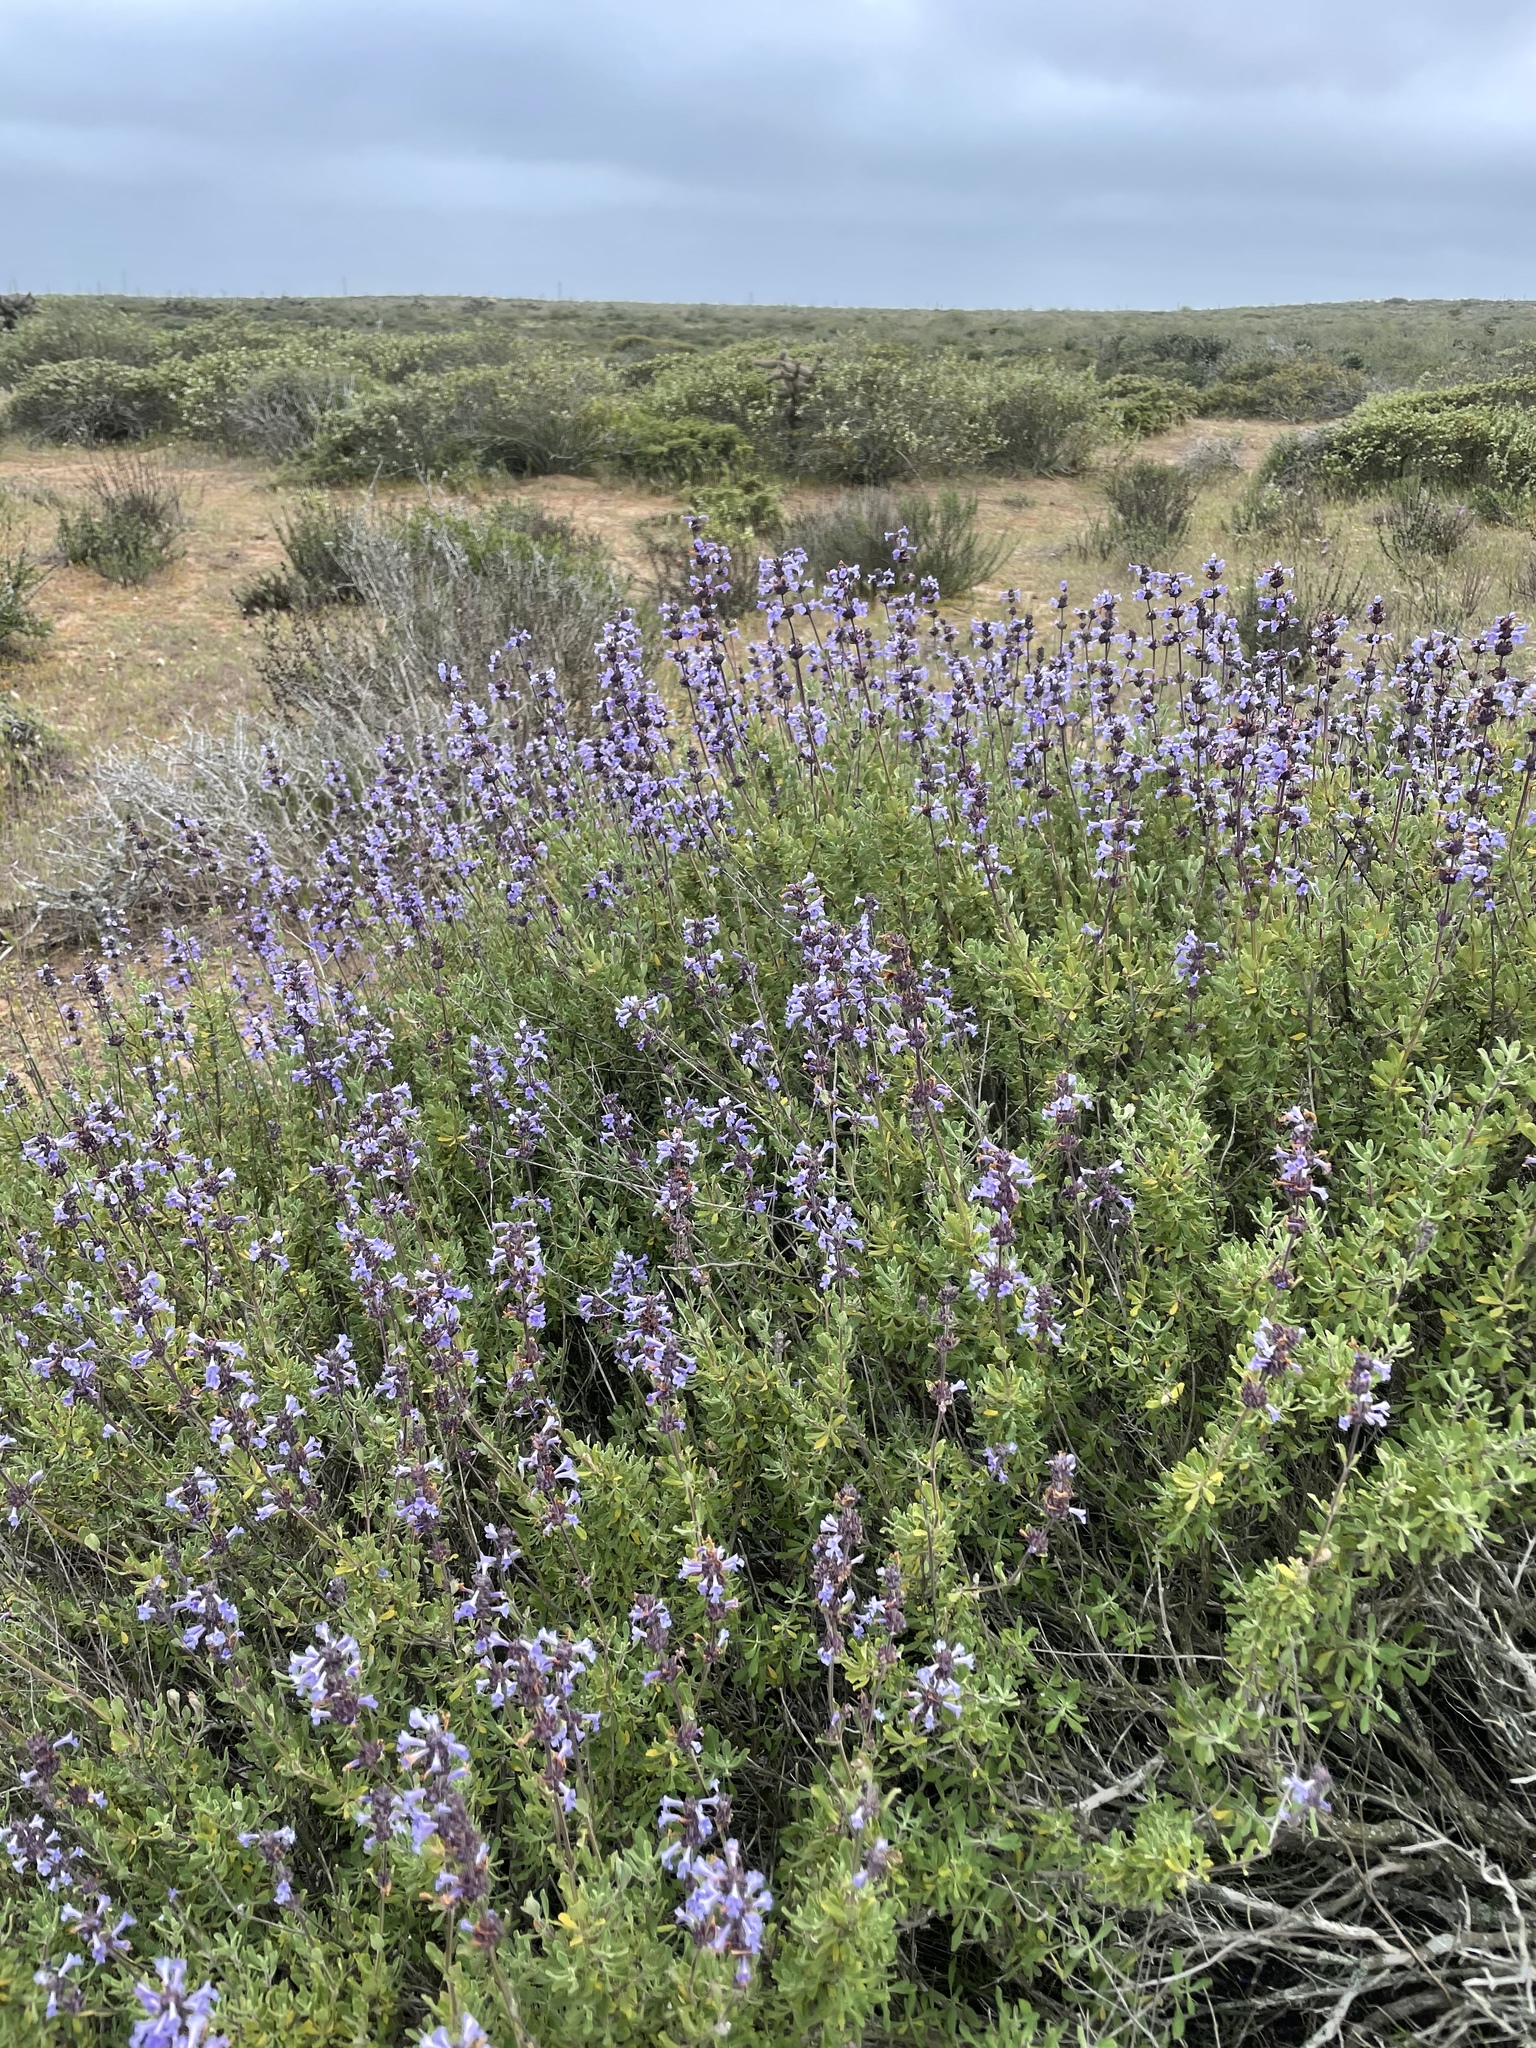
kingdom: Plantae
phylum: Tracheophyta
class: Magnoliopsida
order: Lamiales
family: Lamiaceae
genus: Salvia
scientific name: Salvia munzii
